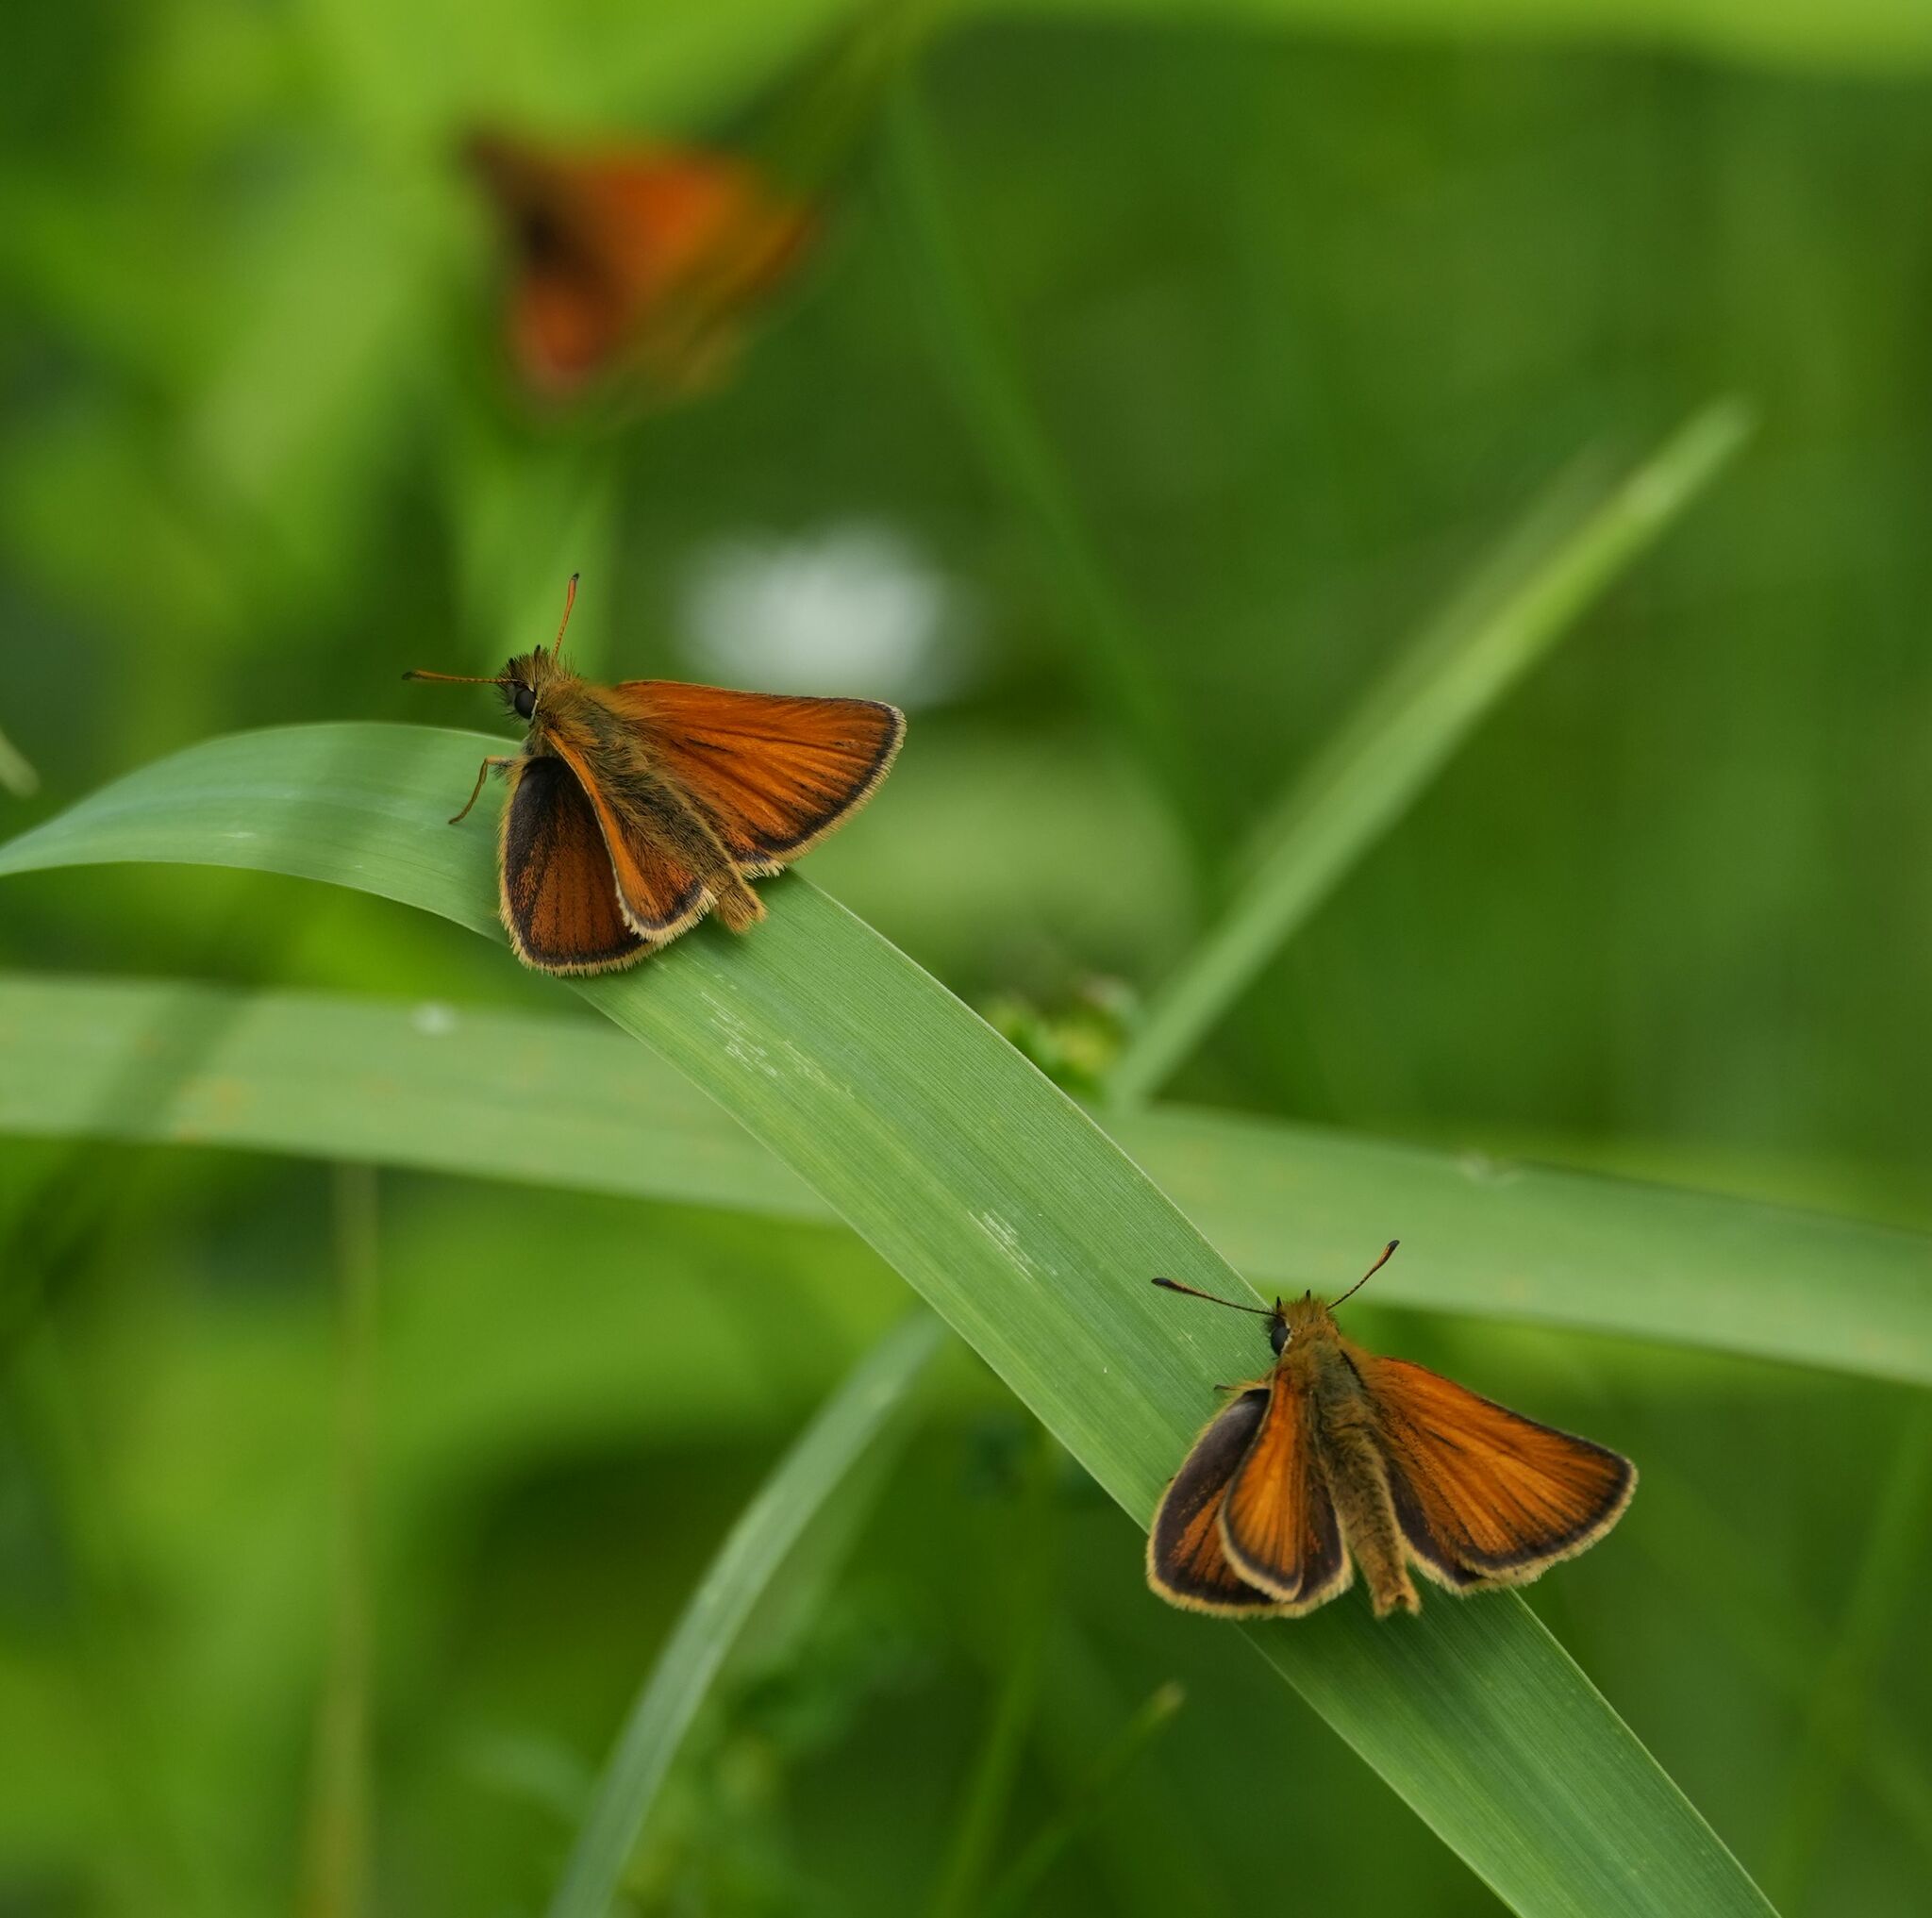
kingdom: Animalia
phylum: Arthropoda
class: Insecta
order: Lepidoptera
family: Hesperiidae
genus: Thymelicus
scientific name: Thymelicus lineola
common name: Essex skipper
